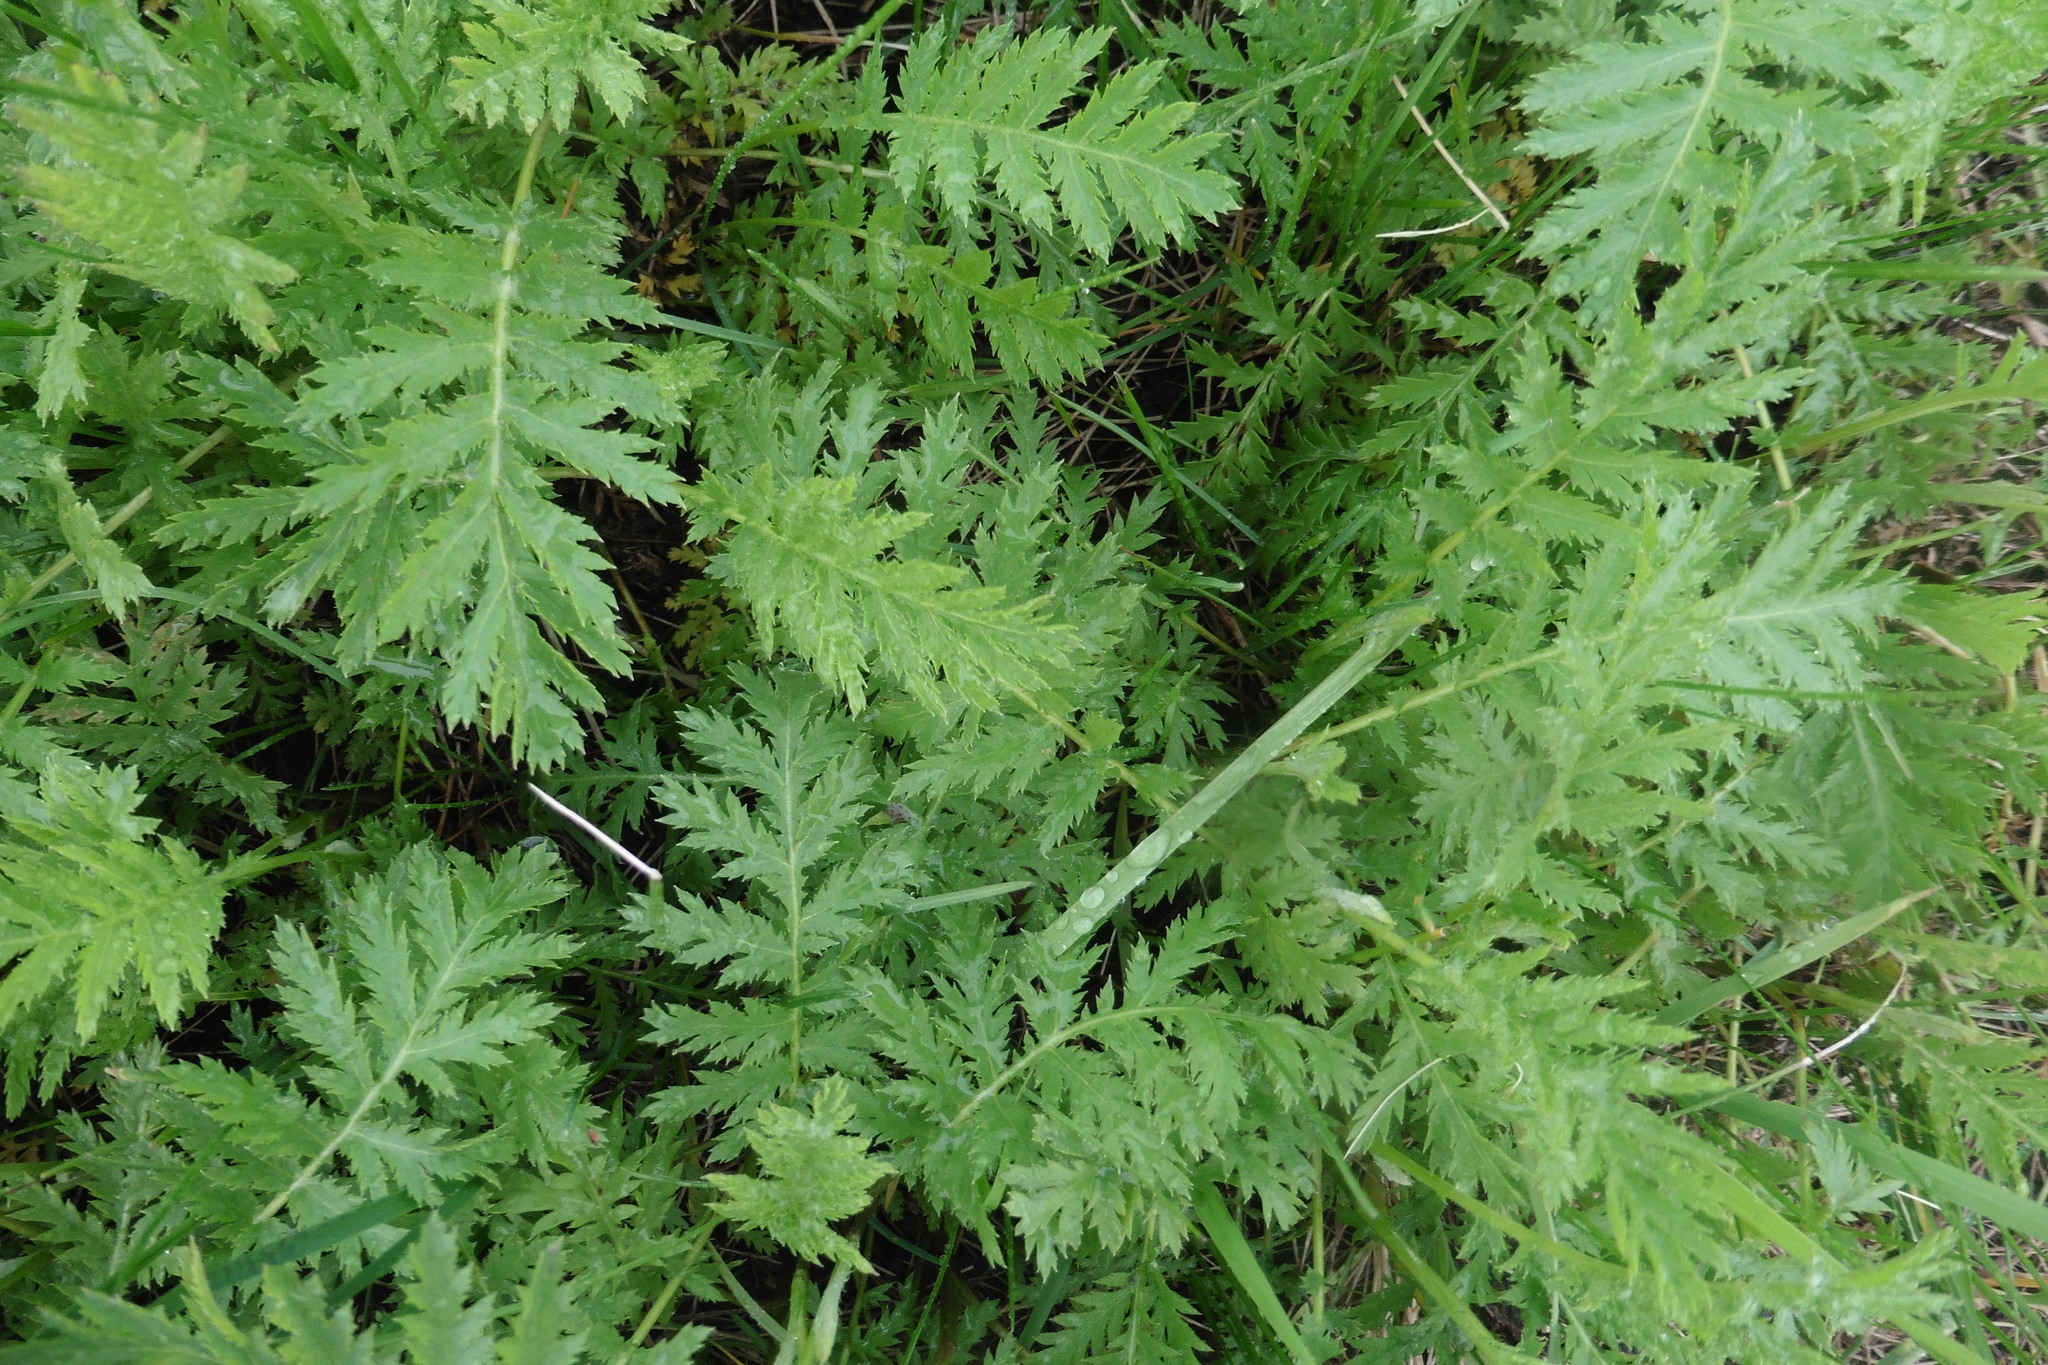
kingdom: Plantae
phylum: Tracheophyta
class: Magnoliopsida
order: Asterales
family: Asteraceae
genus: Tanacetum
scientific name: Tanacetum vulgare
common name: Common tansy
